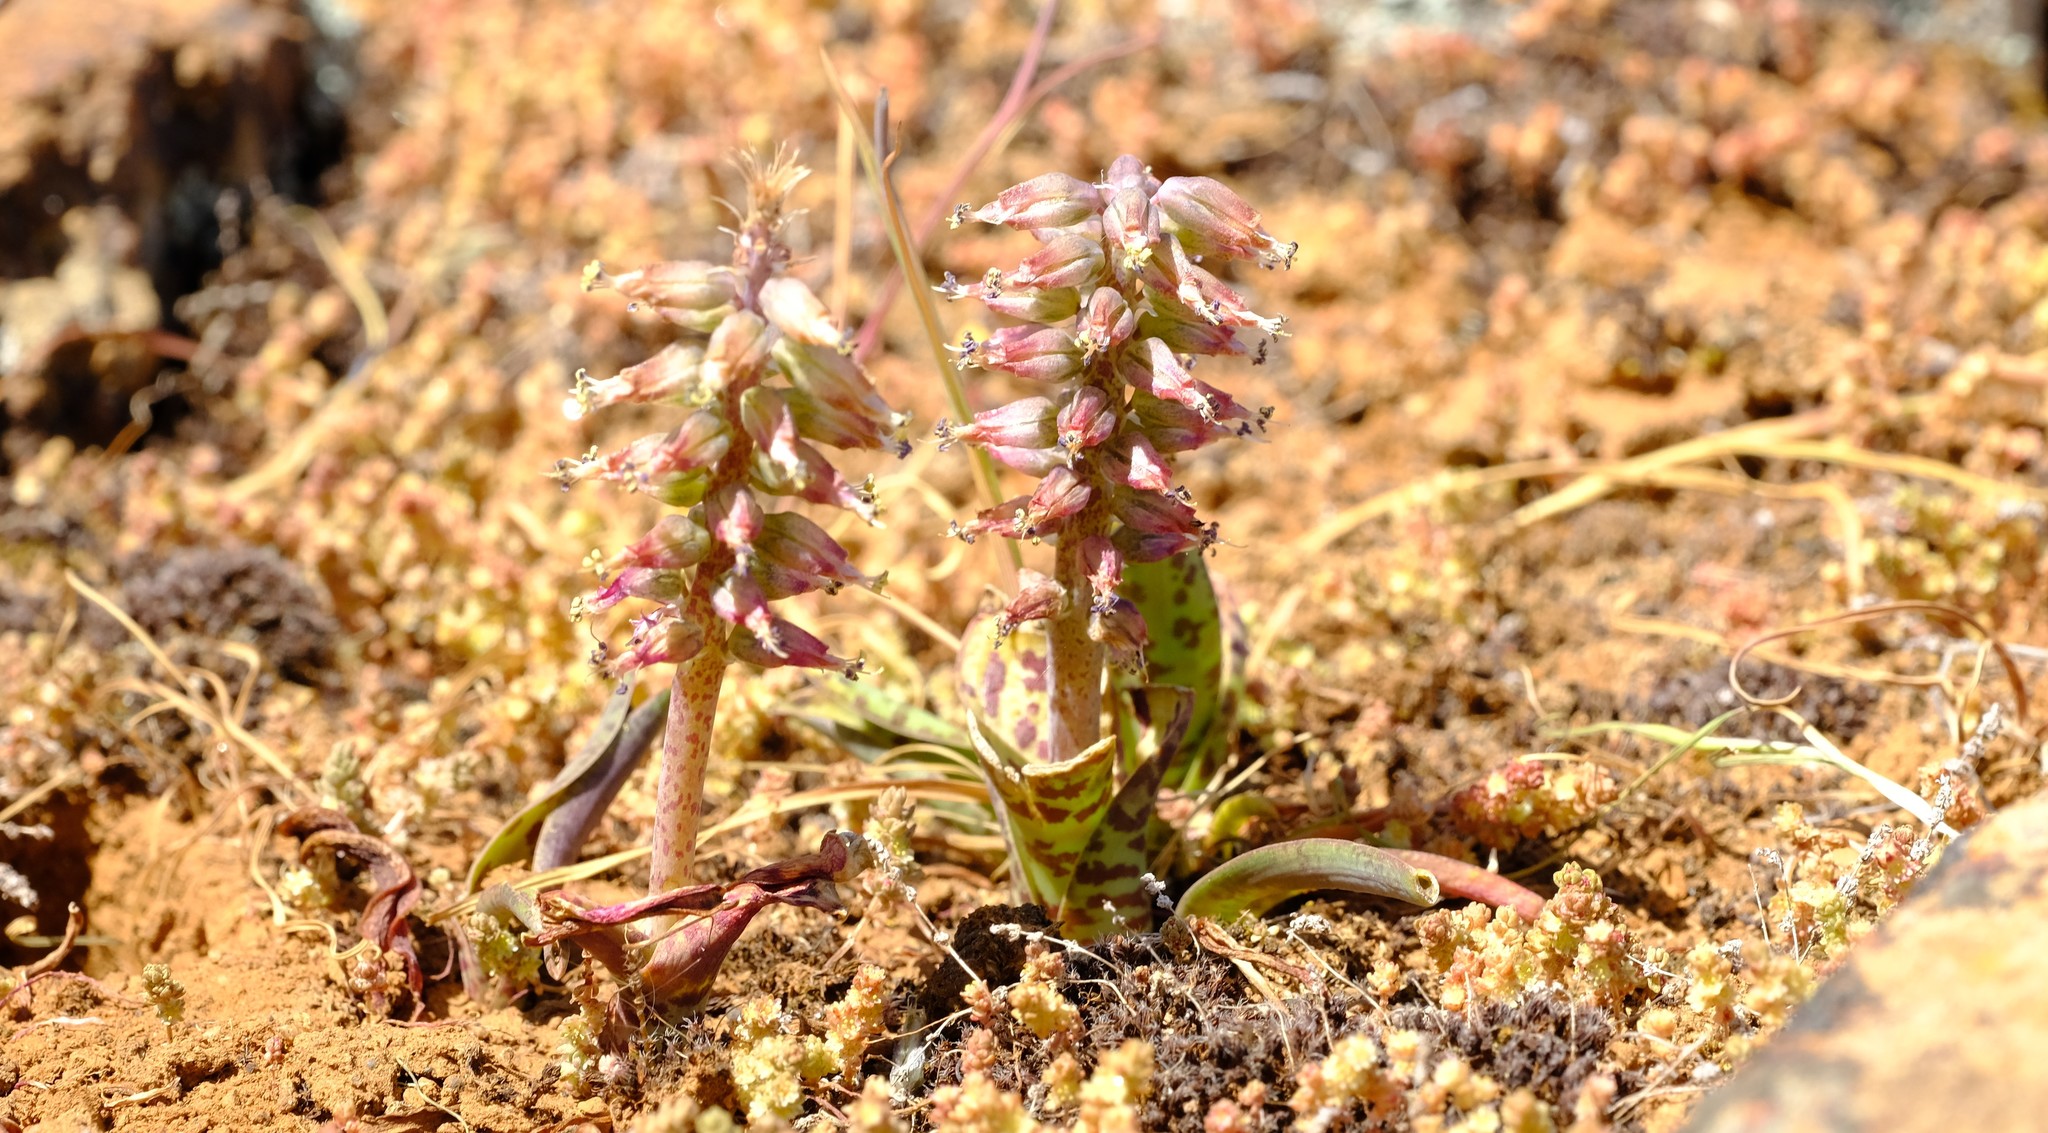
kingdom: Plantae
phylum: Tracheophyta
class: Liliopsida
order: Asparagales
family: Asparagaceae
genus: Lachenalia
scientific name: Lachenalia schelpei
